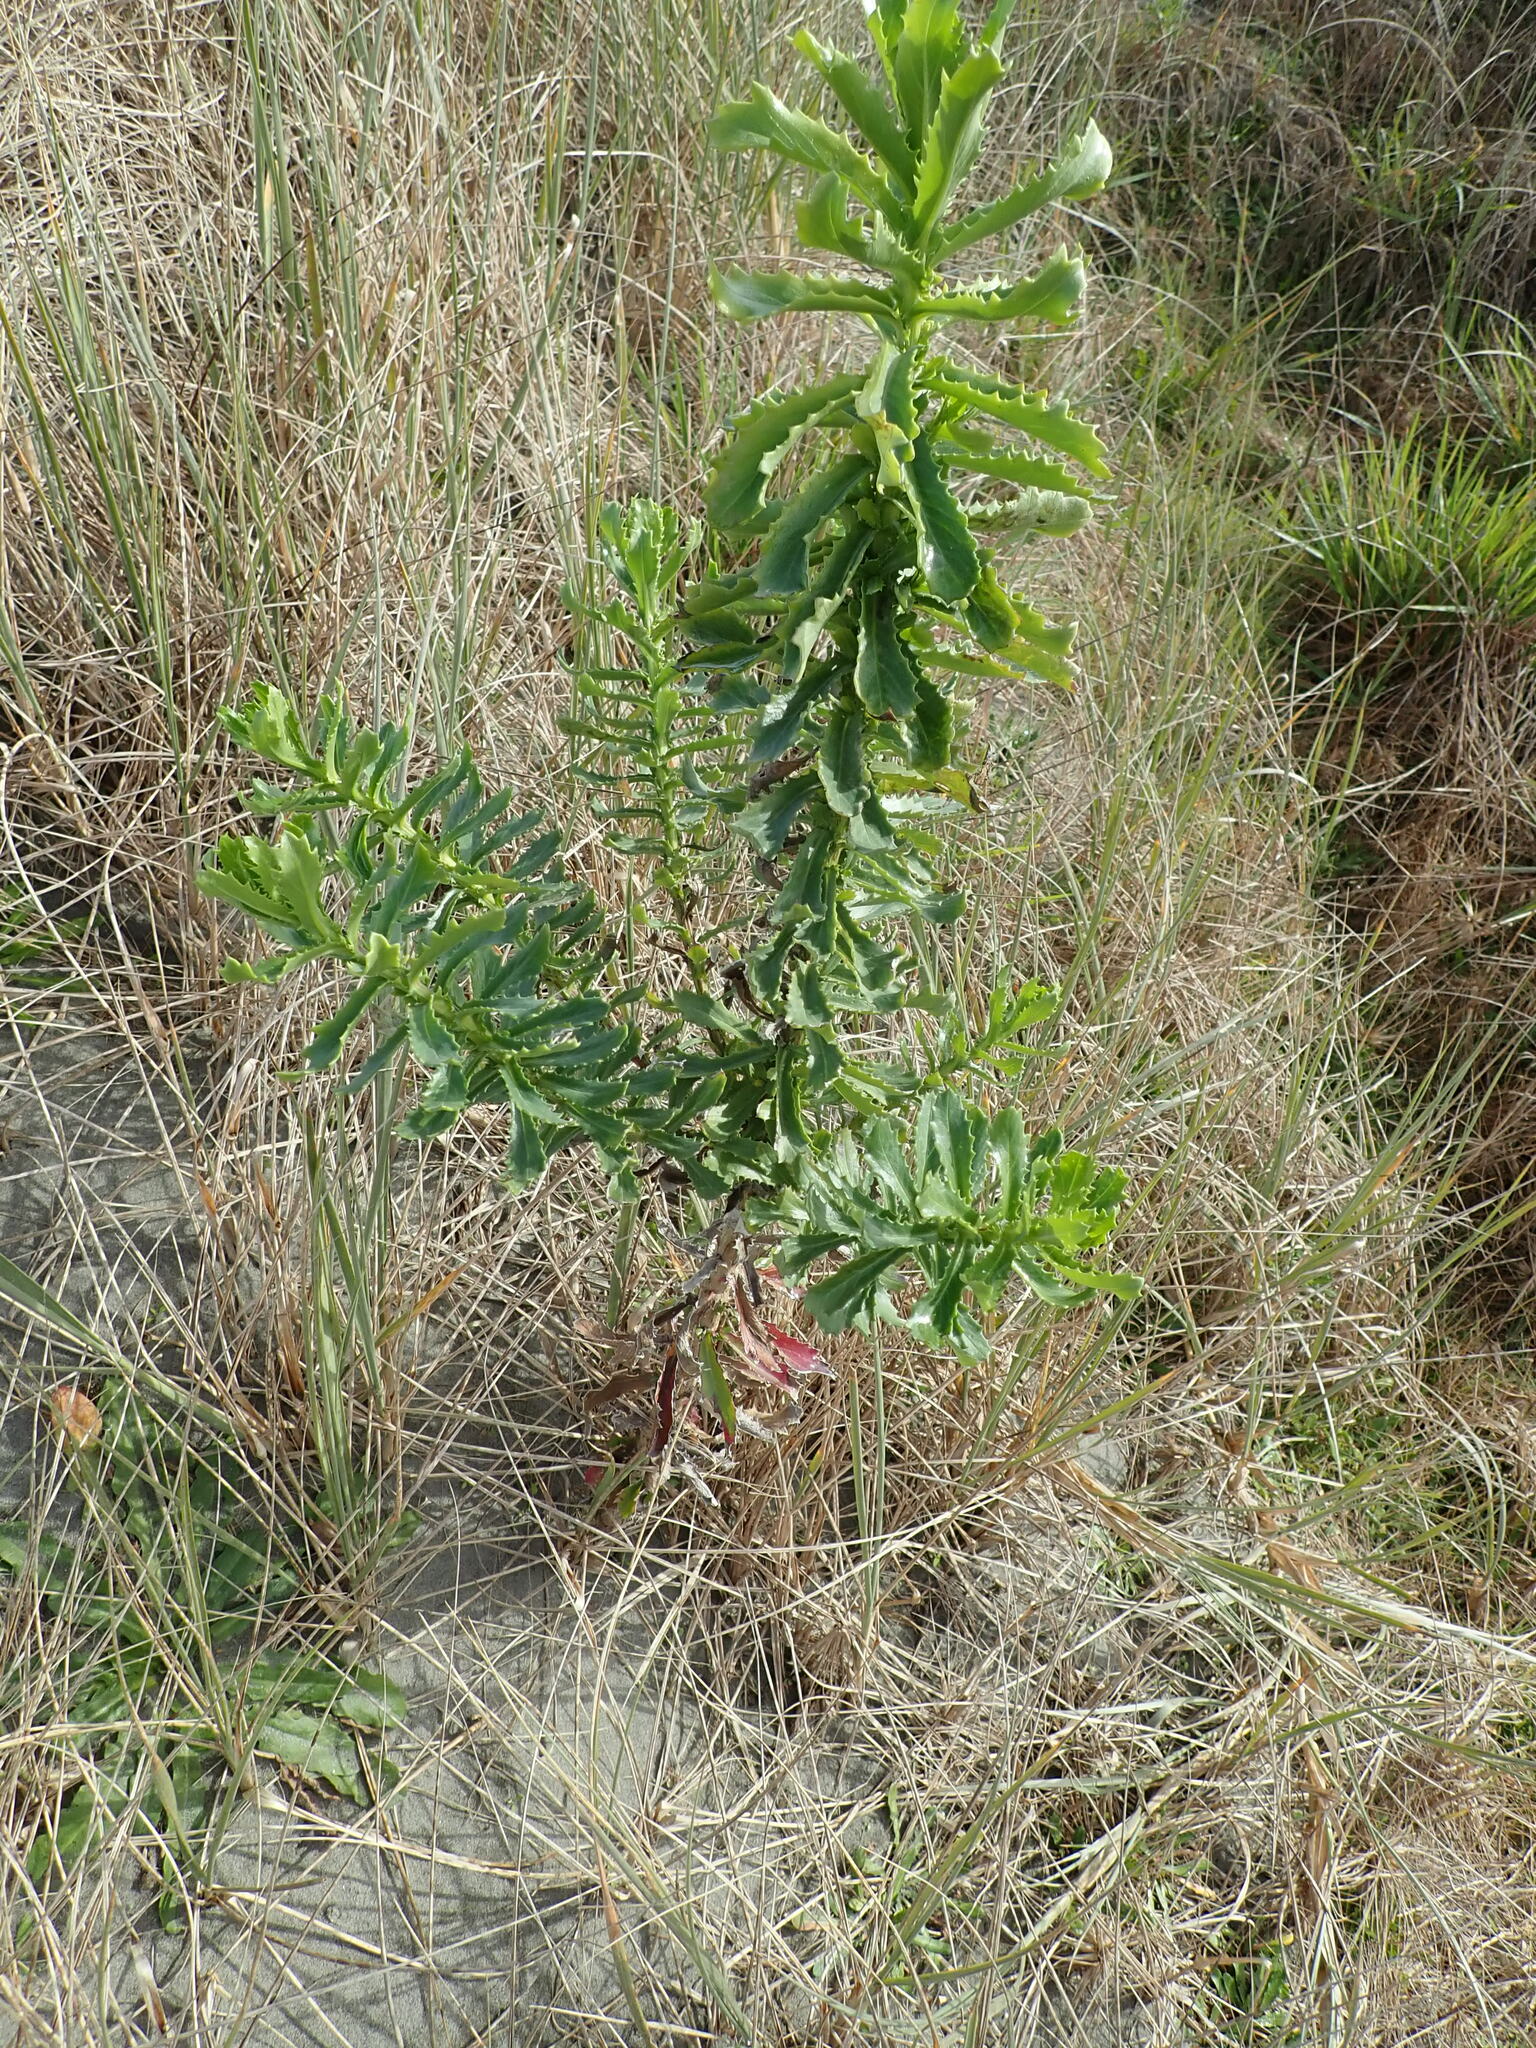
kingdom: Plantae
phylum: Tracheophyta
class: Magnoliopsida
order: Asterales
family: Asteraceae
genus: Senecio
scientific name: Senecio glastifolius
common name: Woad-leaved ragwort
